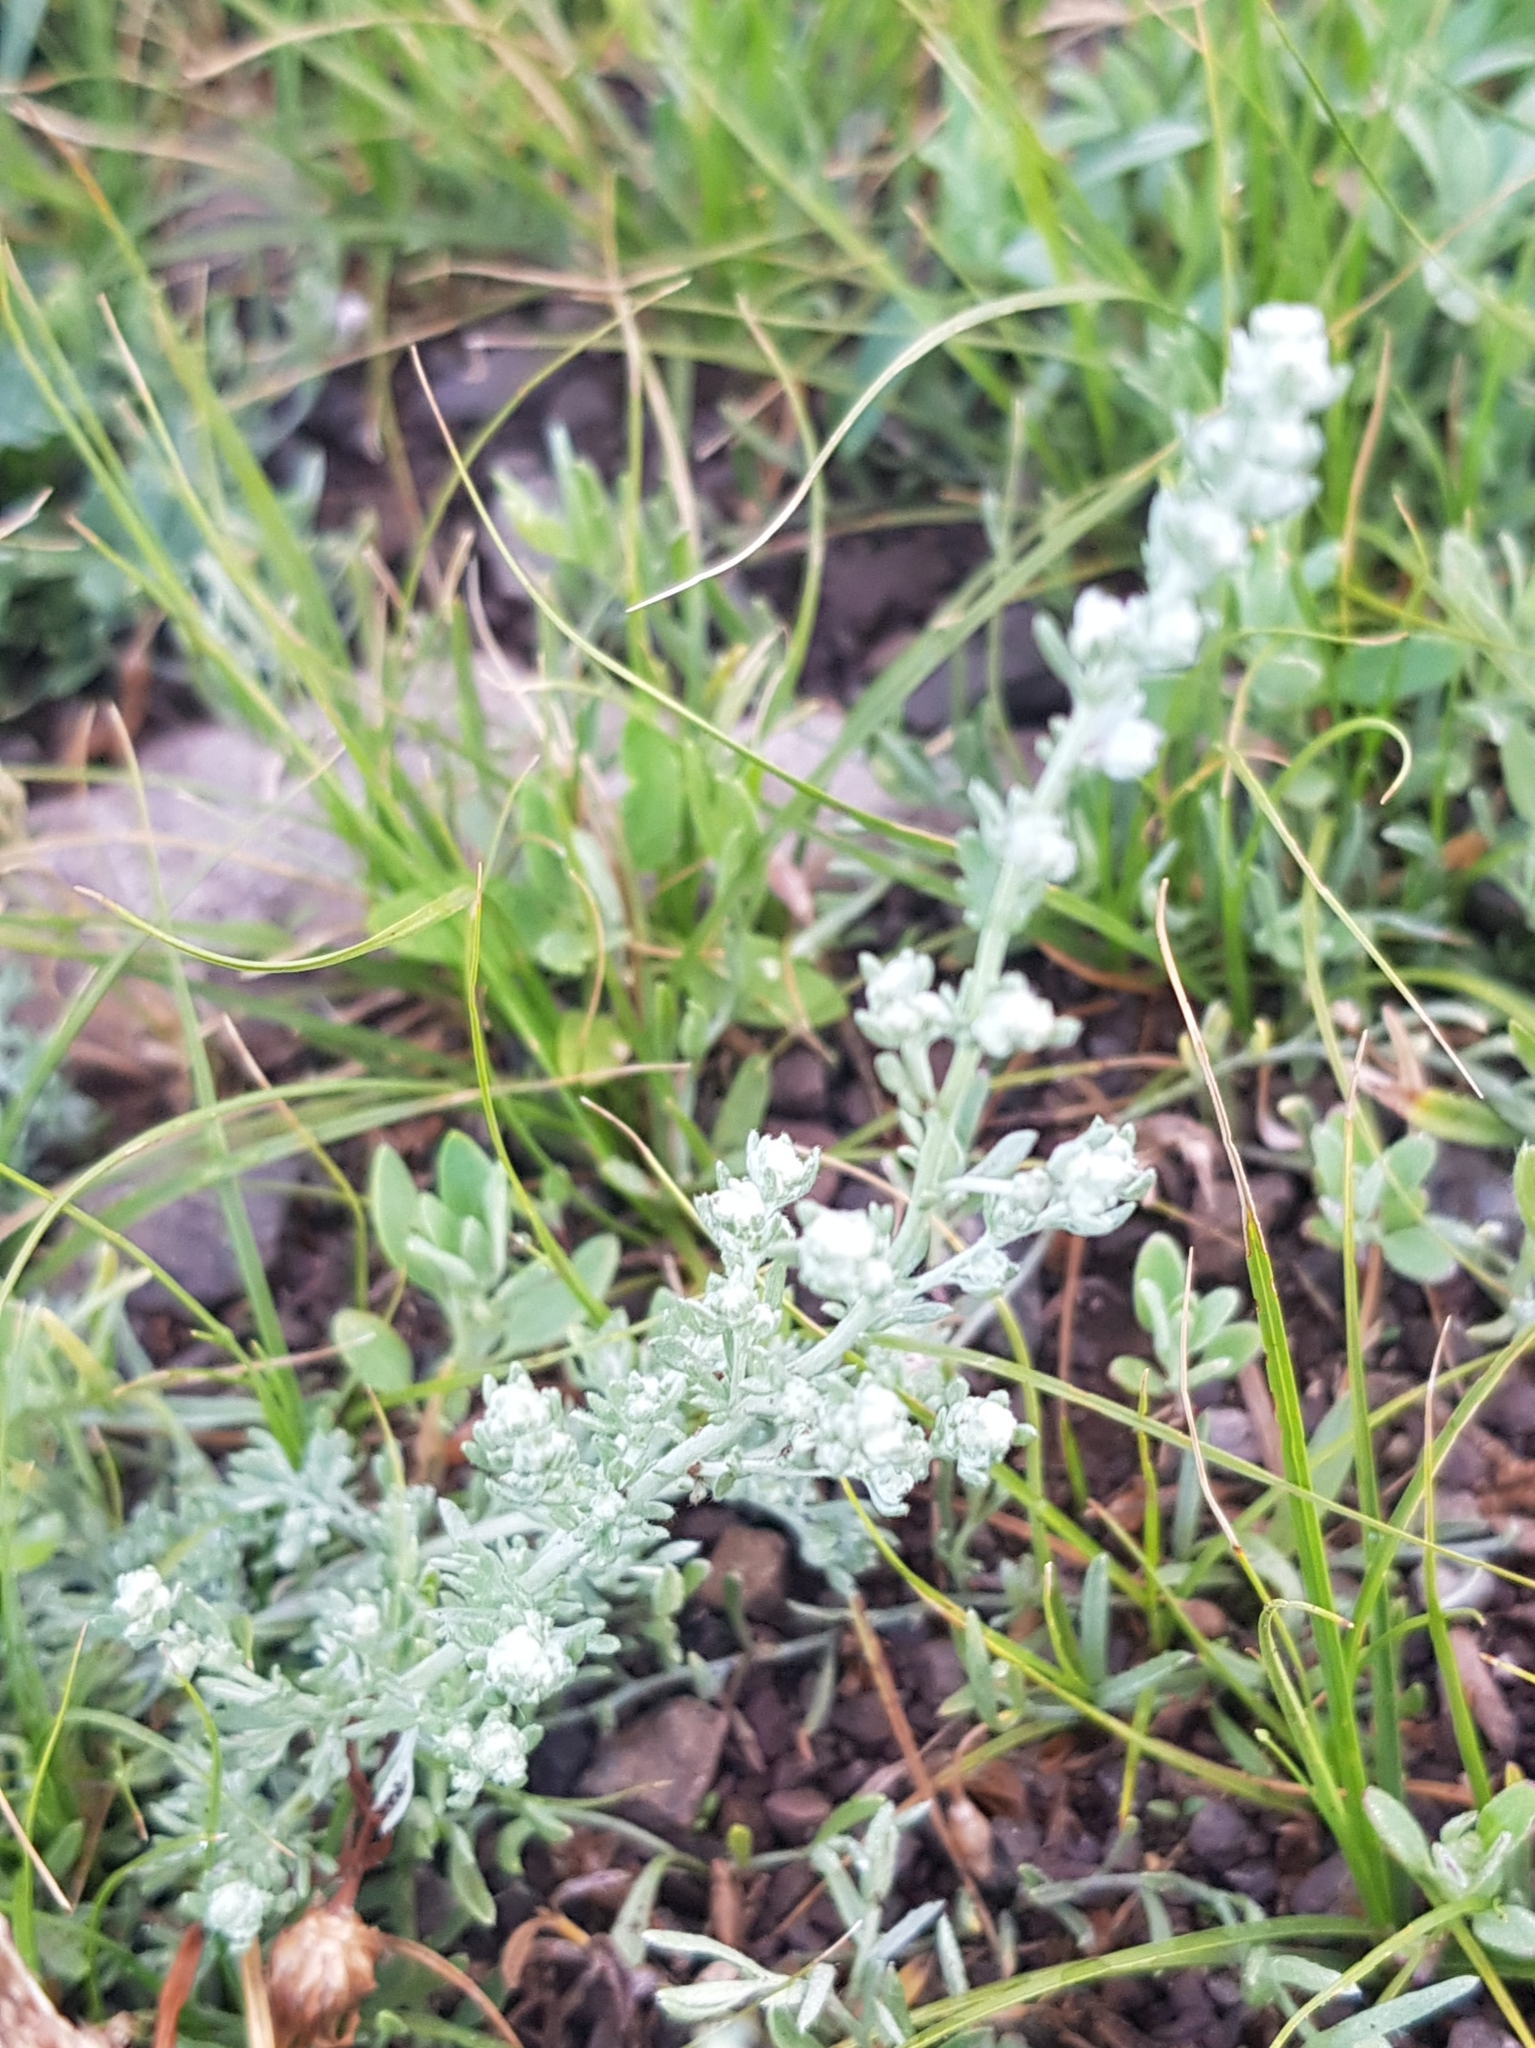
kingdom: Plantae
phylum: Tracheophyta
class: Magnoliopsida
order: Asterales
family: Asteraceae
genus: Artemisia
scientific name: Artemisia frigida
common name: Prairie sagewort
